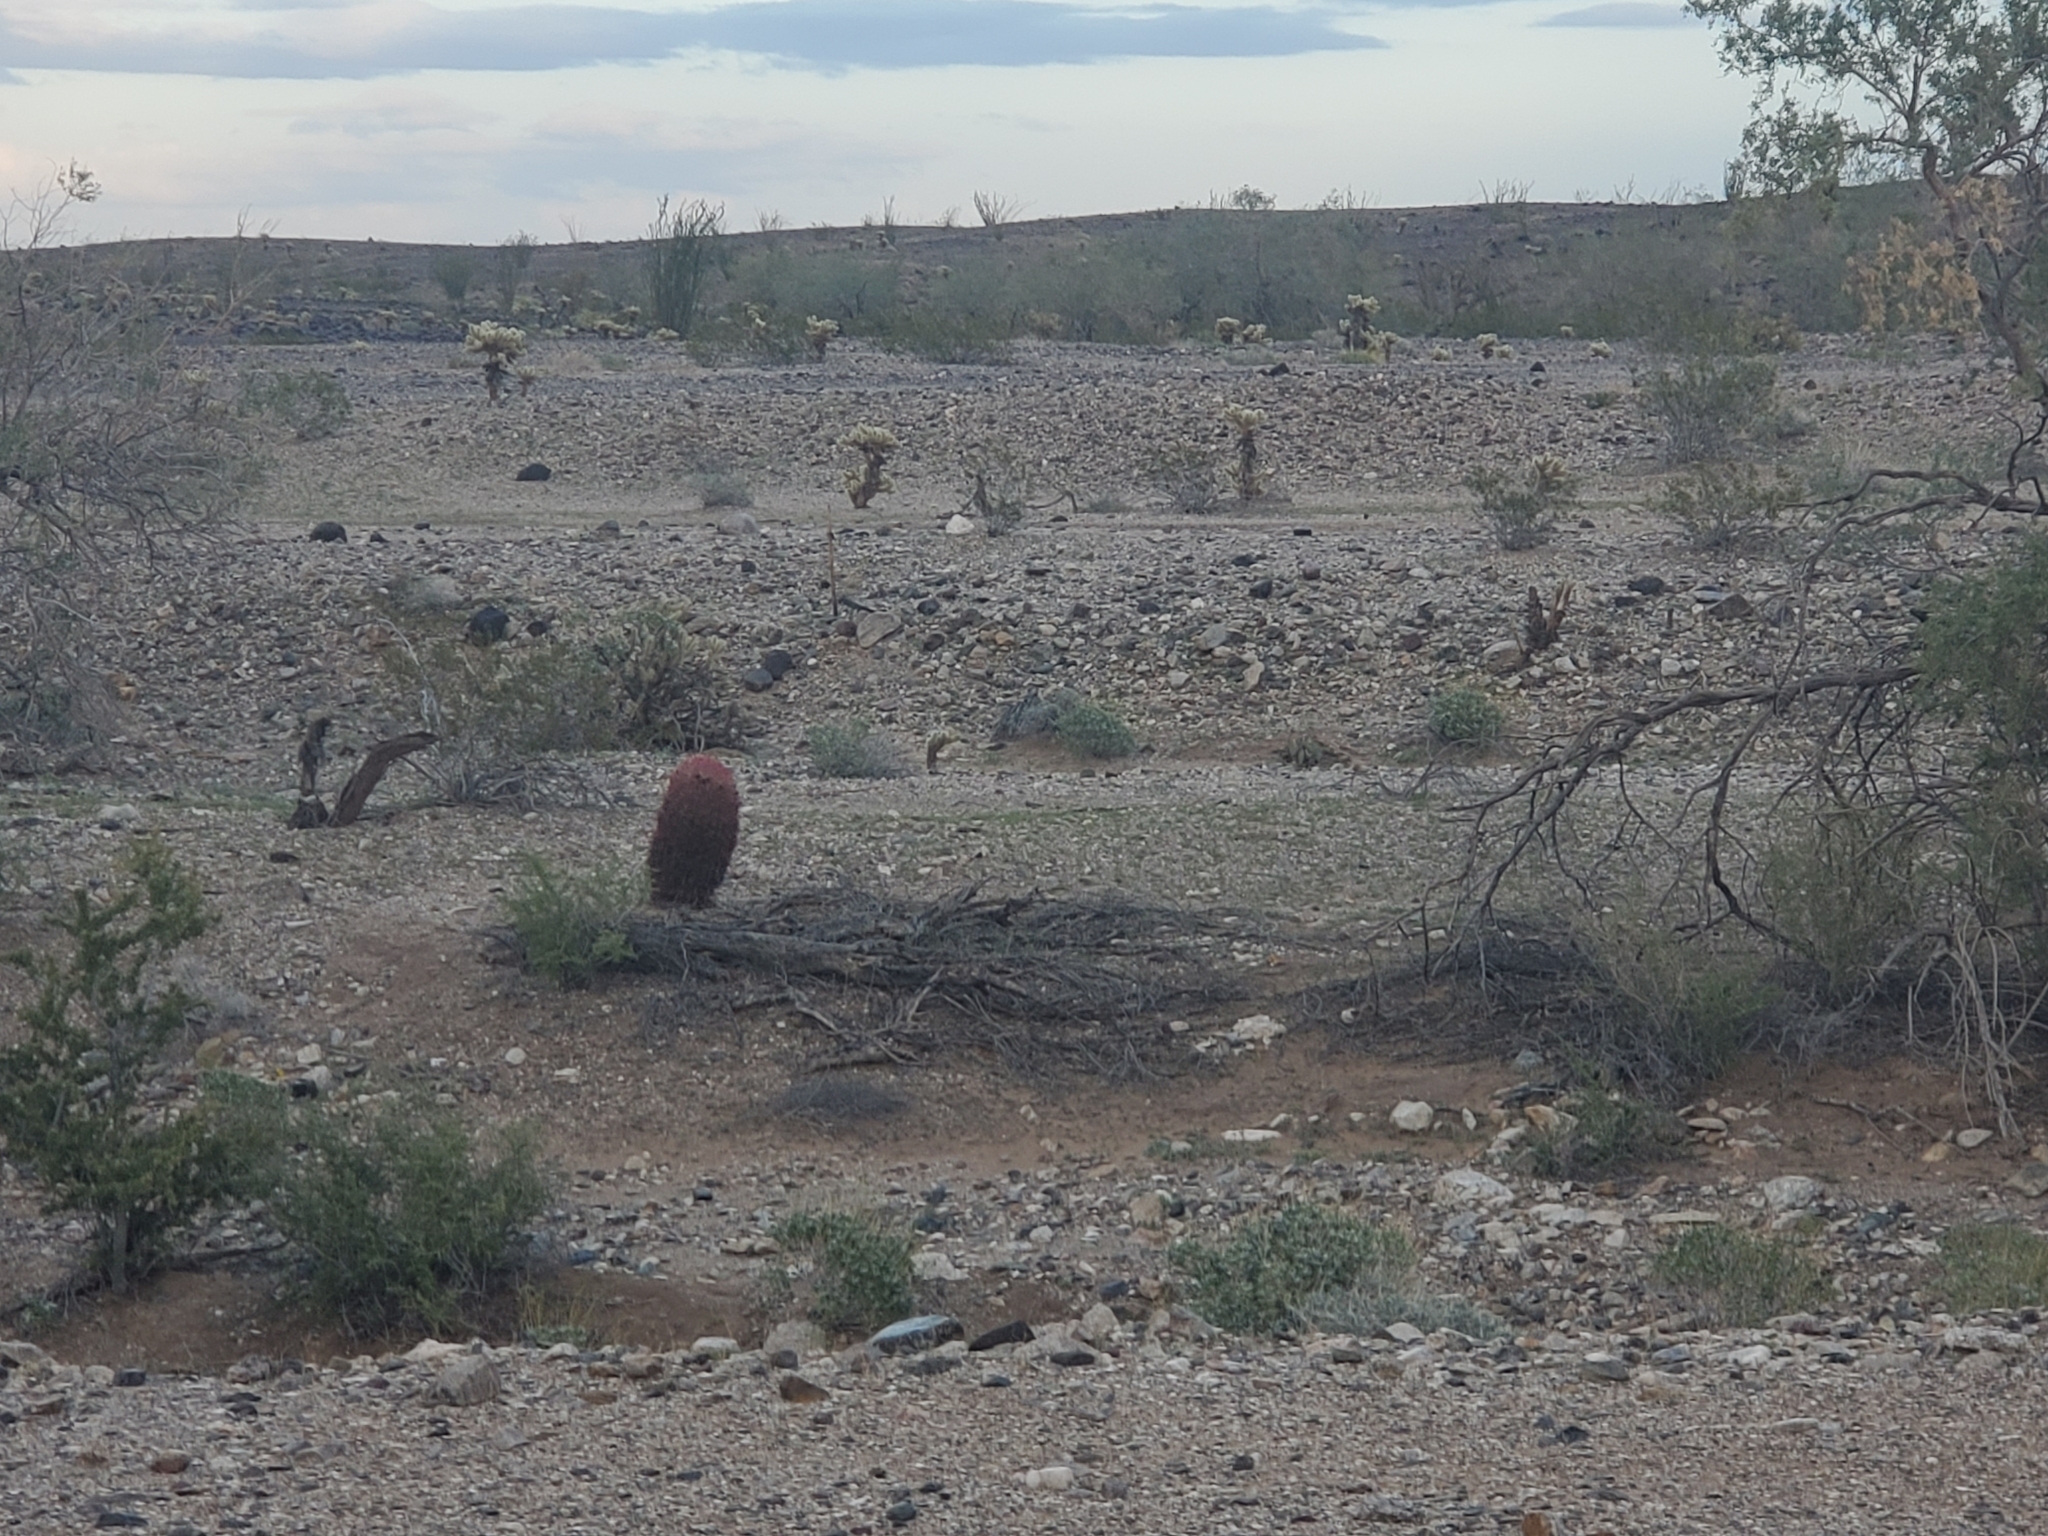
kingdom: Plantae
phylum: Tracheophyta
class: Magnoliopsida
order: Caryophyllales
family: Cactaceae
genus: Ferocactus
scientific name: Ferocactus cylindraceus
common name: California barrel cactus
